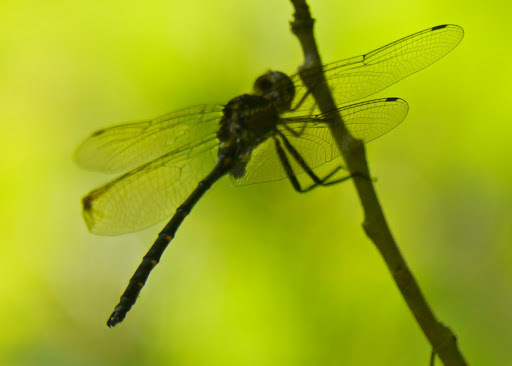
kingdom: Animalia
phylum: Arthropoda
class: Insecta
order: Odonata
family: Corduliidae
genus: Somatochlora
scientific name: Somatochlora linearis
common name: Mocha emerald
